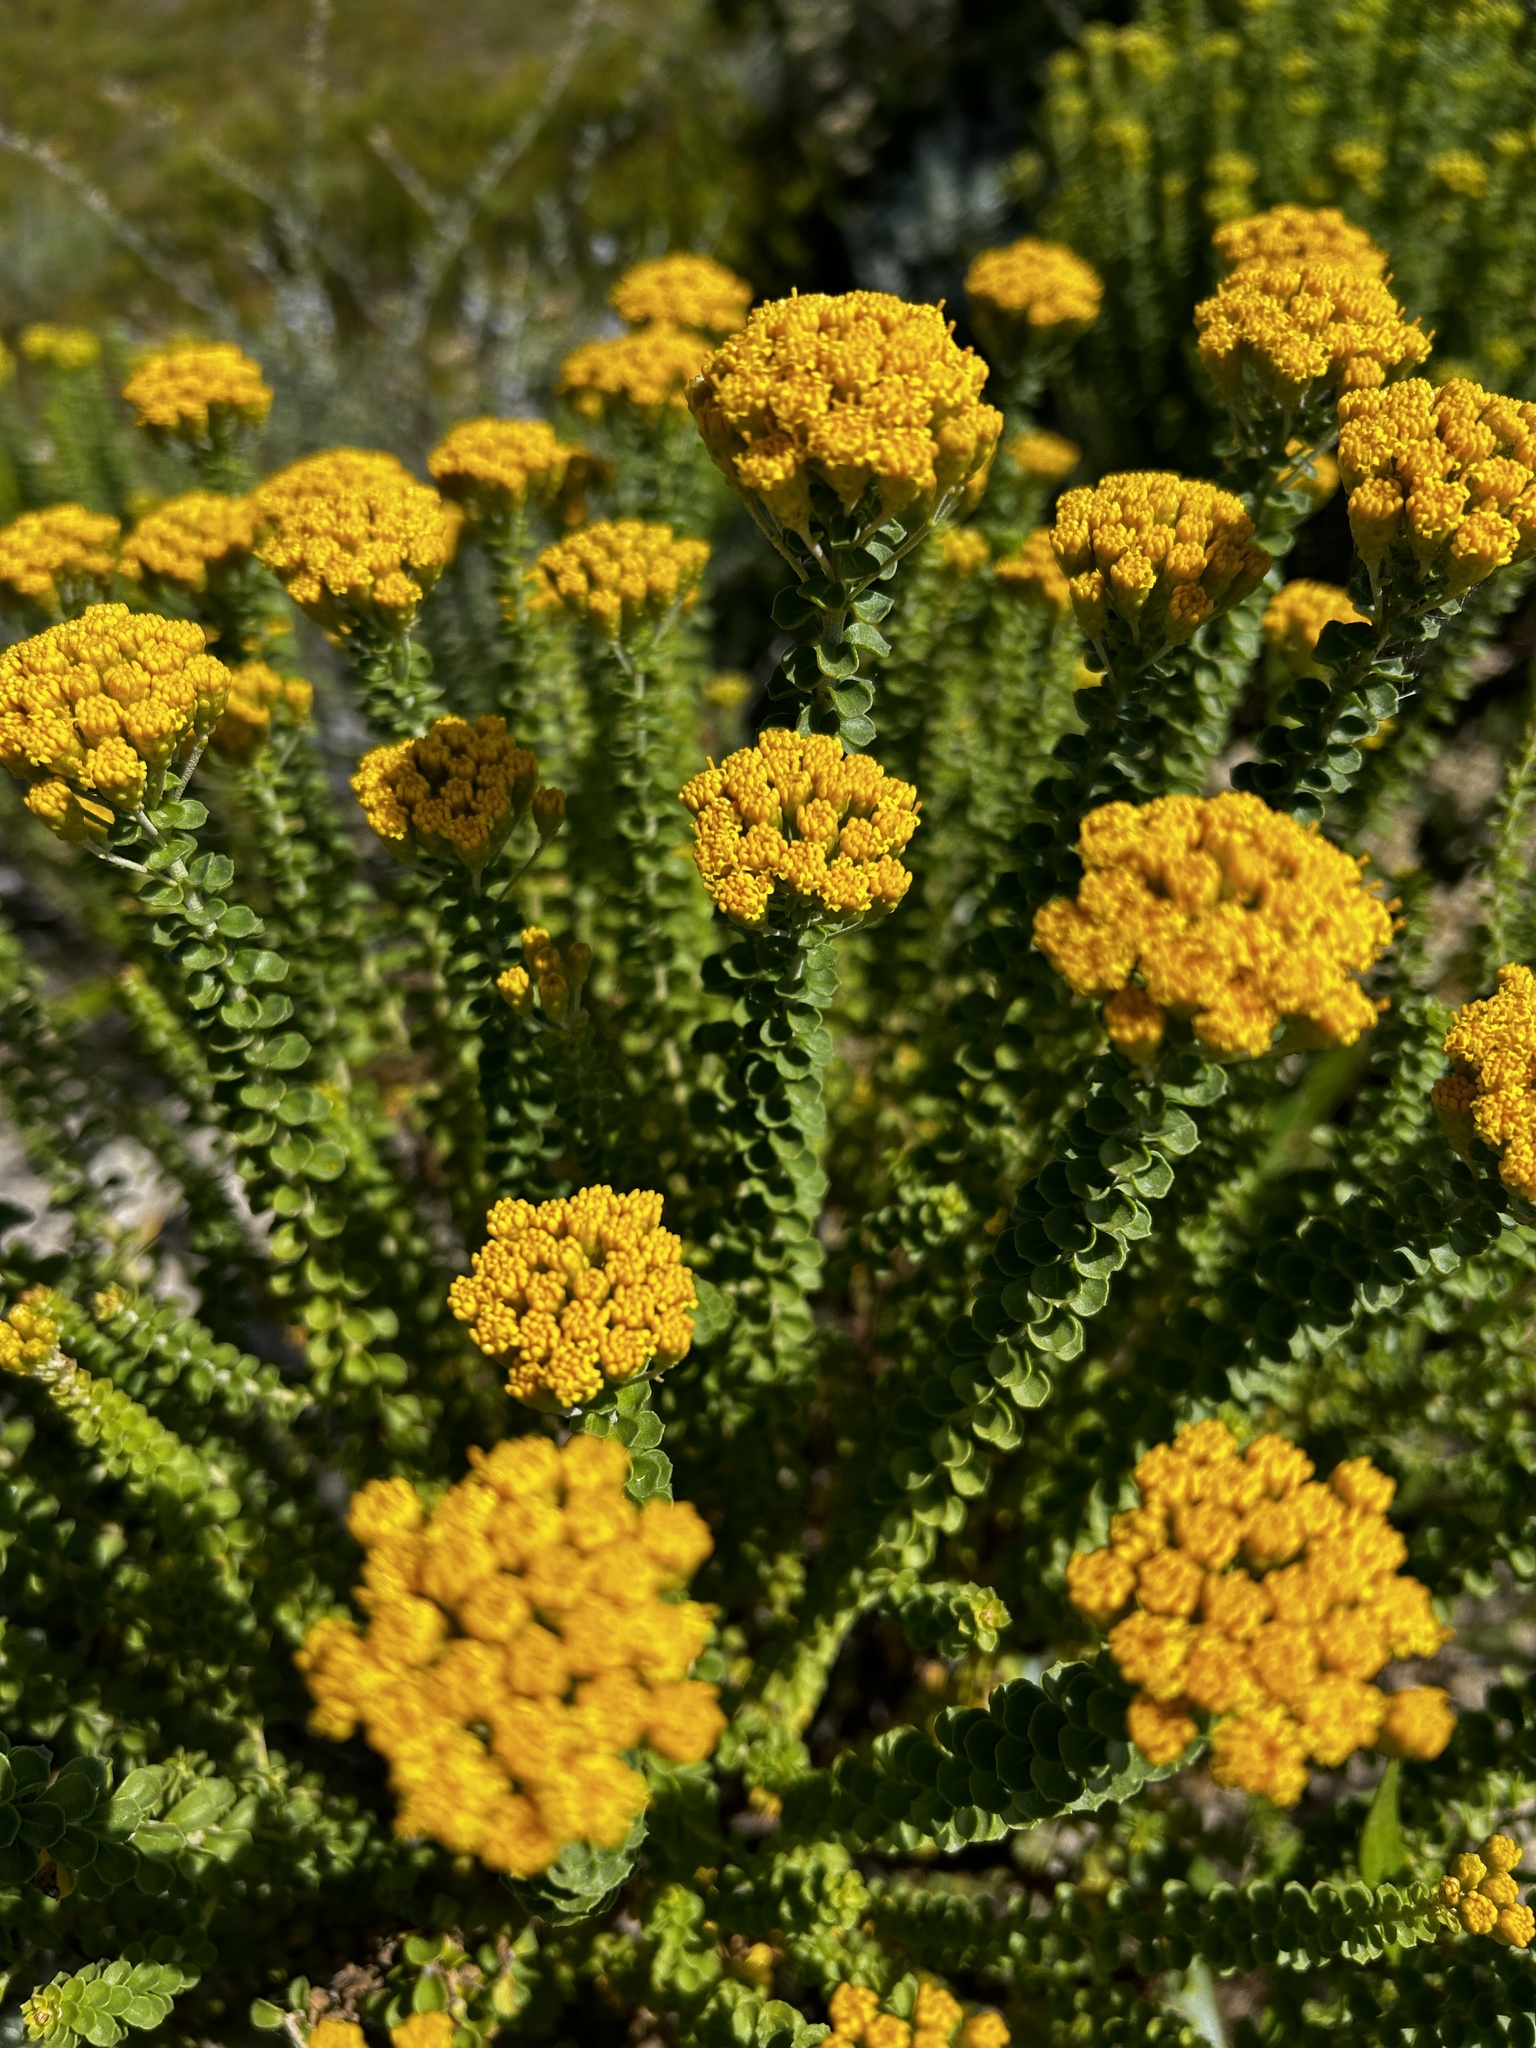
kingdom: Plantae
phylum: Tracheophyta
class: Magnoliopsida
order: Asterales
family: Asteraceae
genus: Athanasia
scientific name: Athanasia quinquedentata
